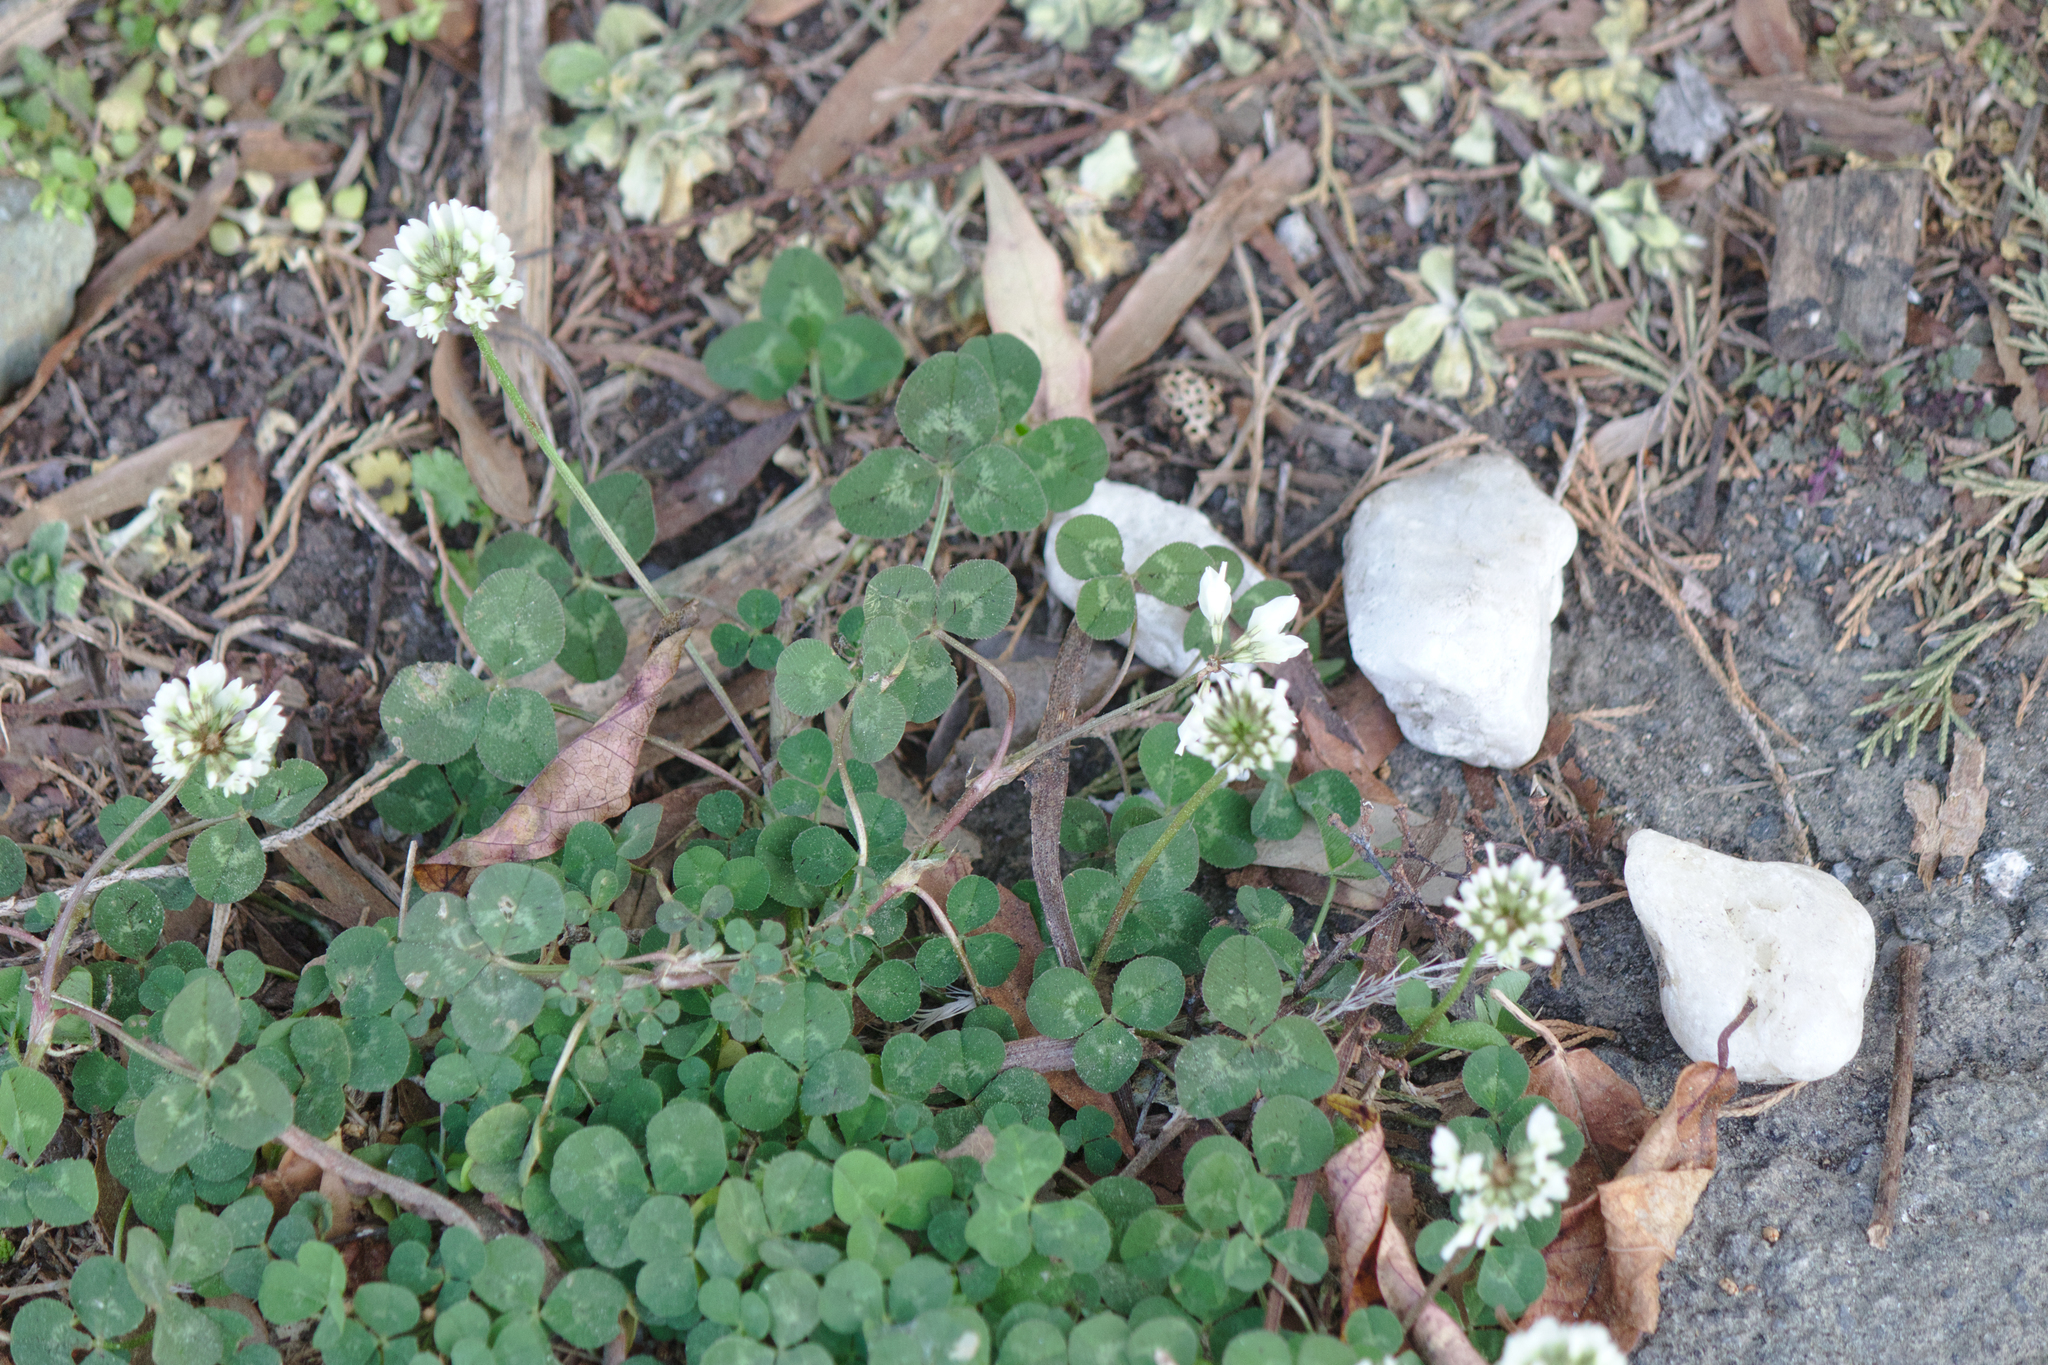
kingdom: Plantae
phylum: Tracheophyta
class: Magnoliopsida
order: Fabales
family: Fabaceae
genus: Trifolium
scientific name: Trifolium repens
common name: White clover
